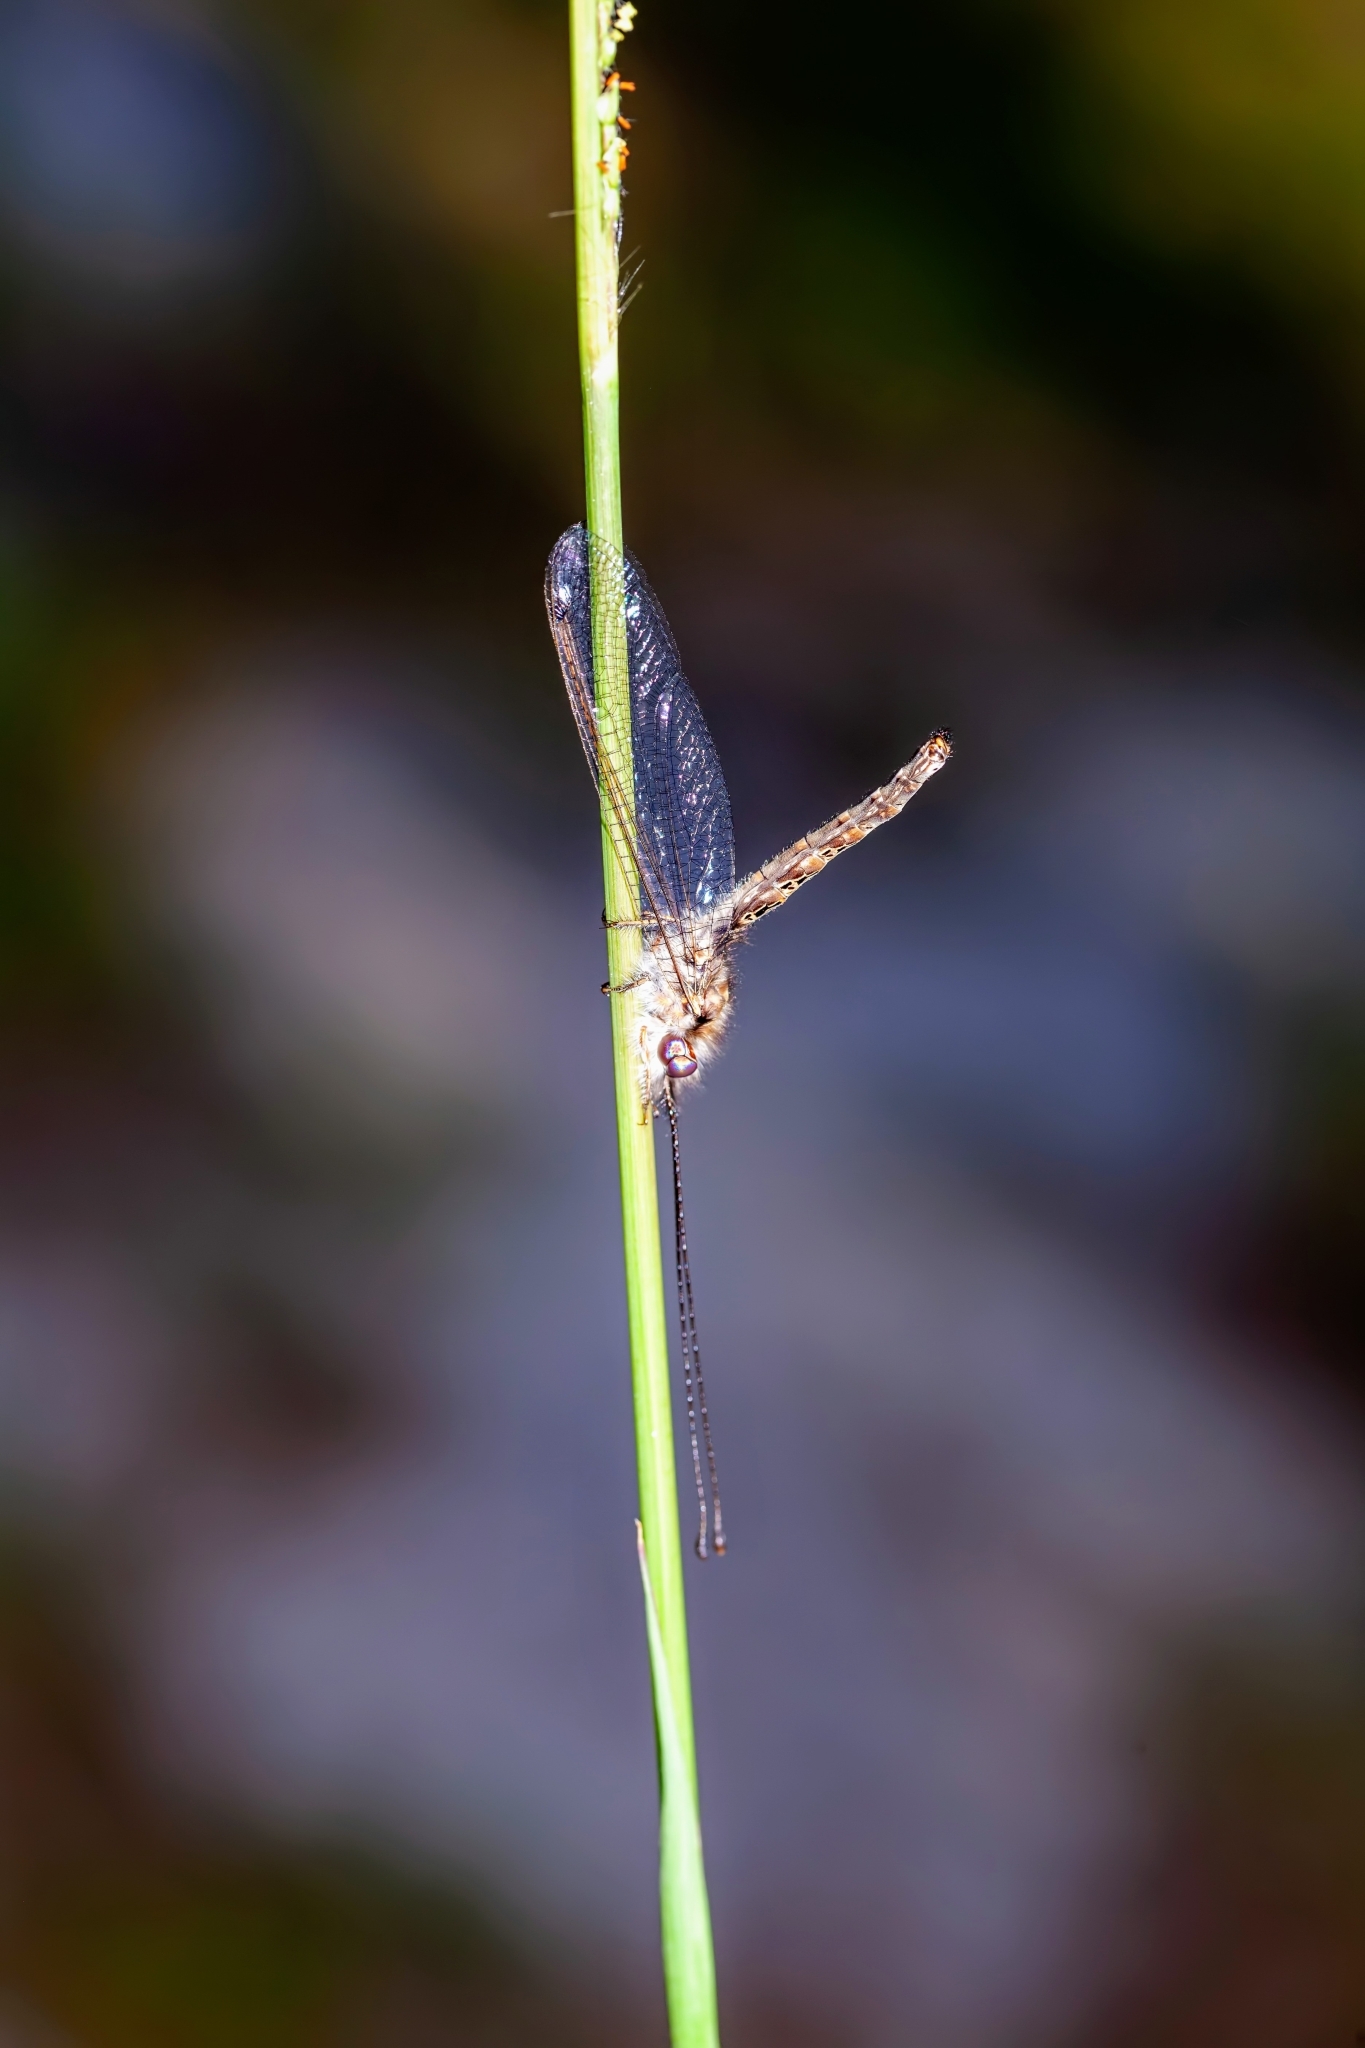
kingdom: Animalia
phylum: Arthropoda
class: Insecta
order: Neuroptera
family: Ascalaphidae
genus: Ululodes
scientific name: Ululodes macleayanus
